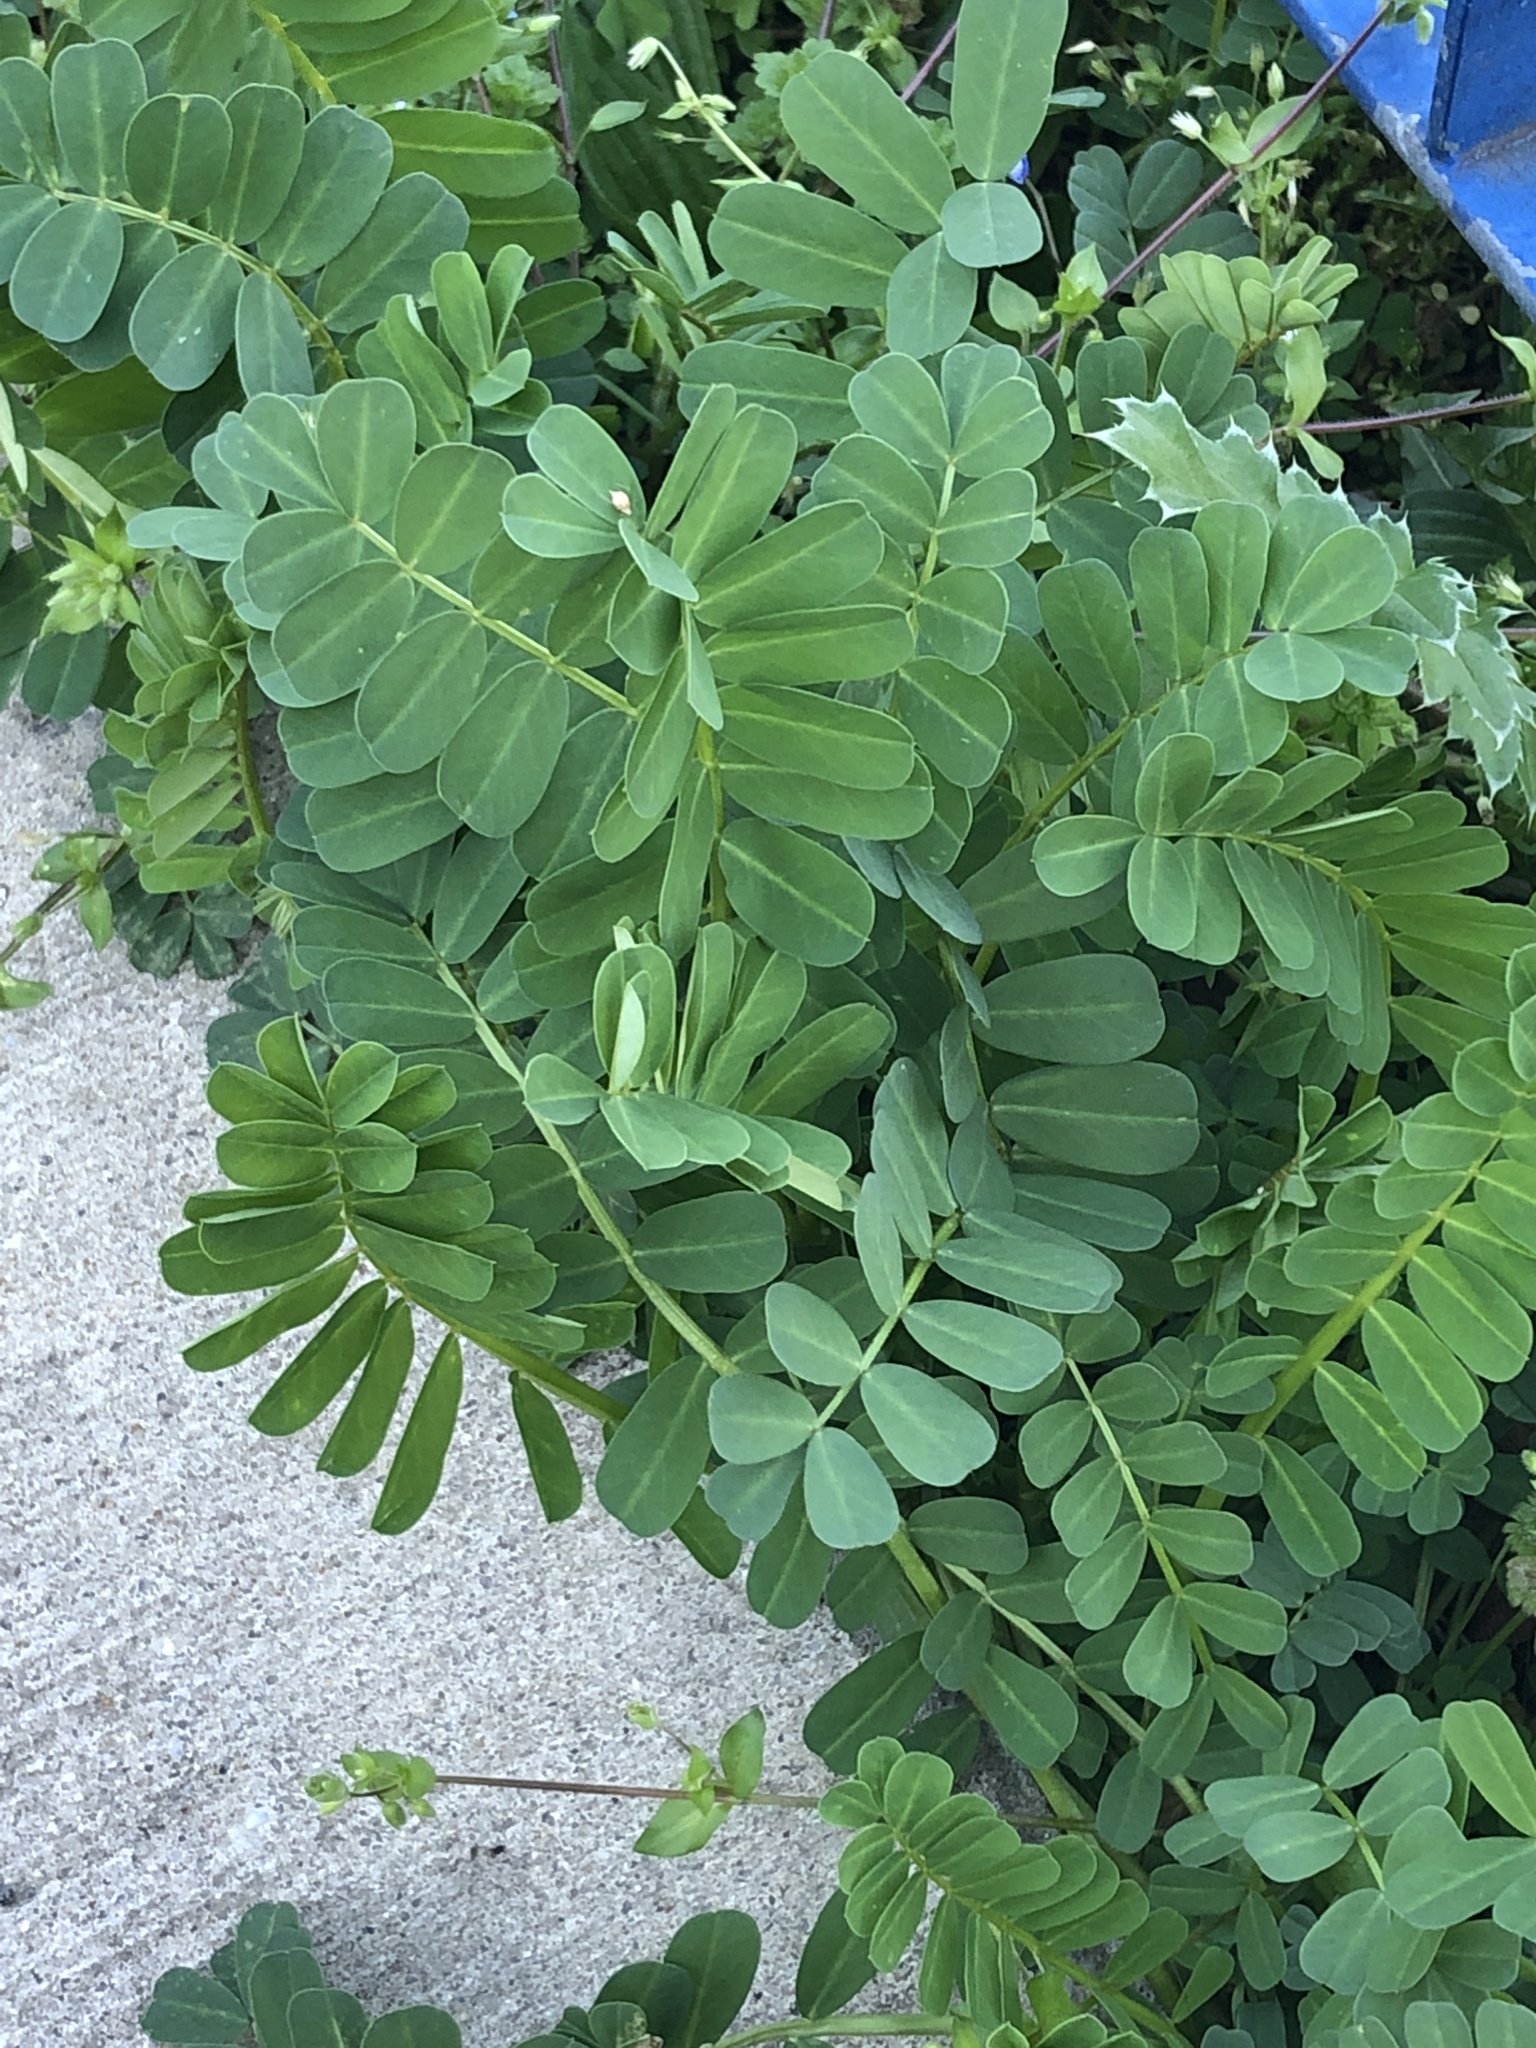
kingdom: Plantae
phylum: Tracheophyta
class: Magnoliopsida
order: Fabales
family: Fabaceae
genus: Coronilla
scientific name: Coronilla varia
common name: Crownvetch
